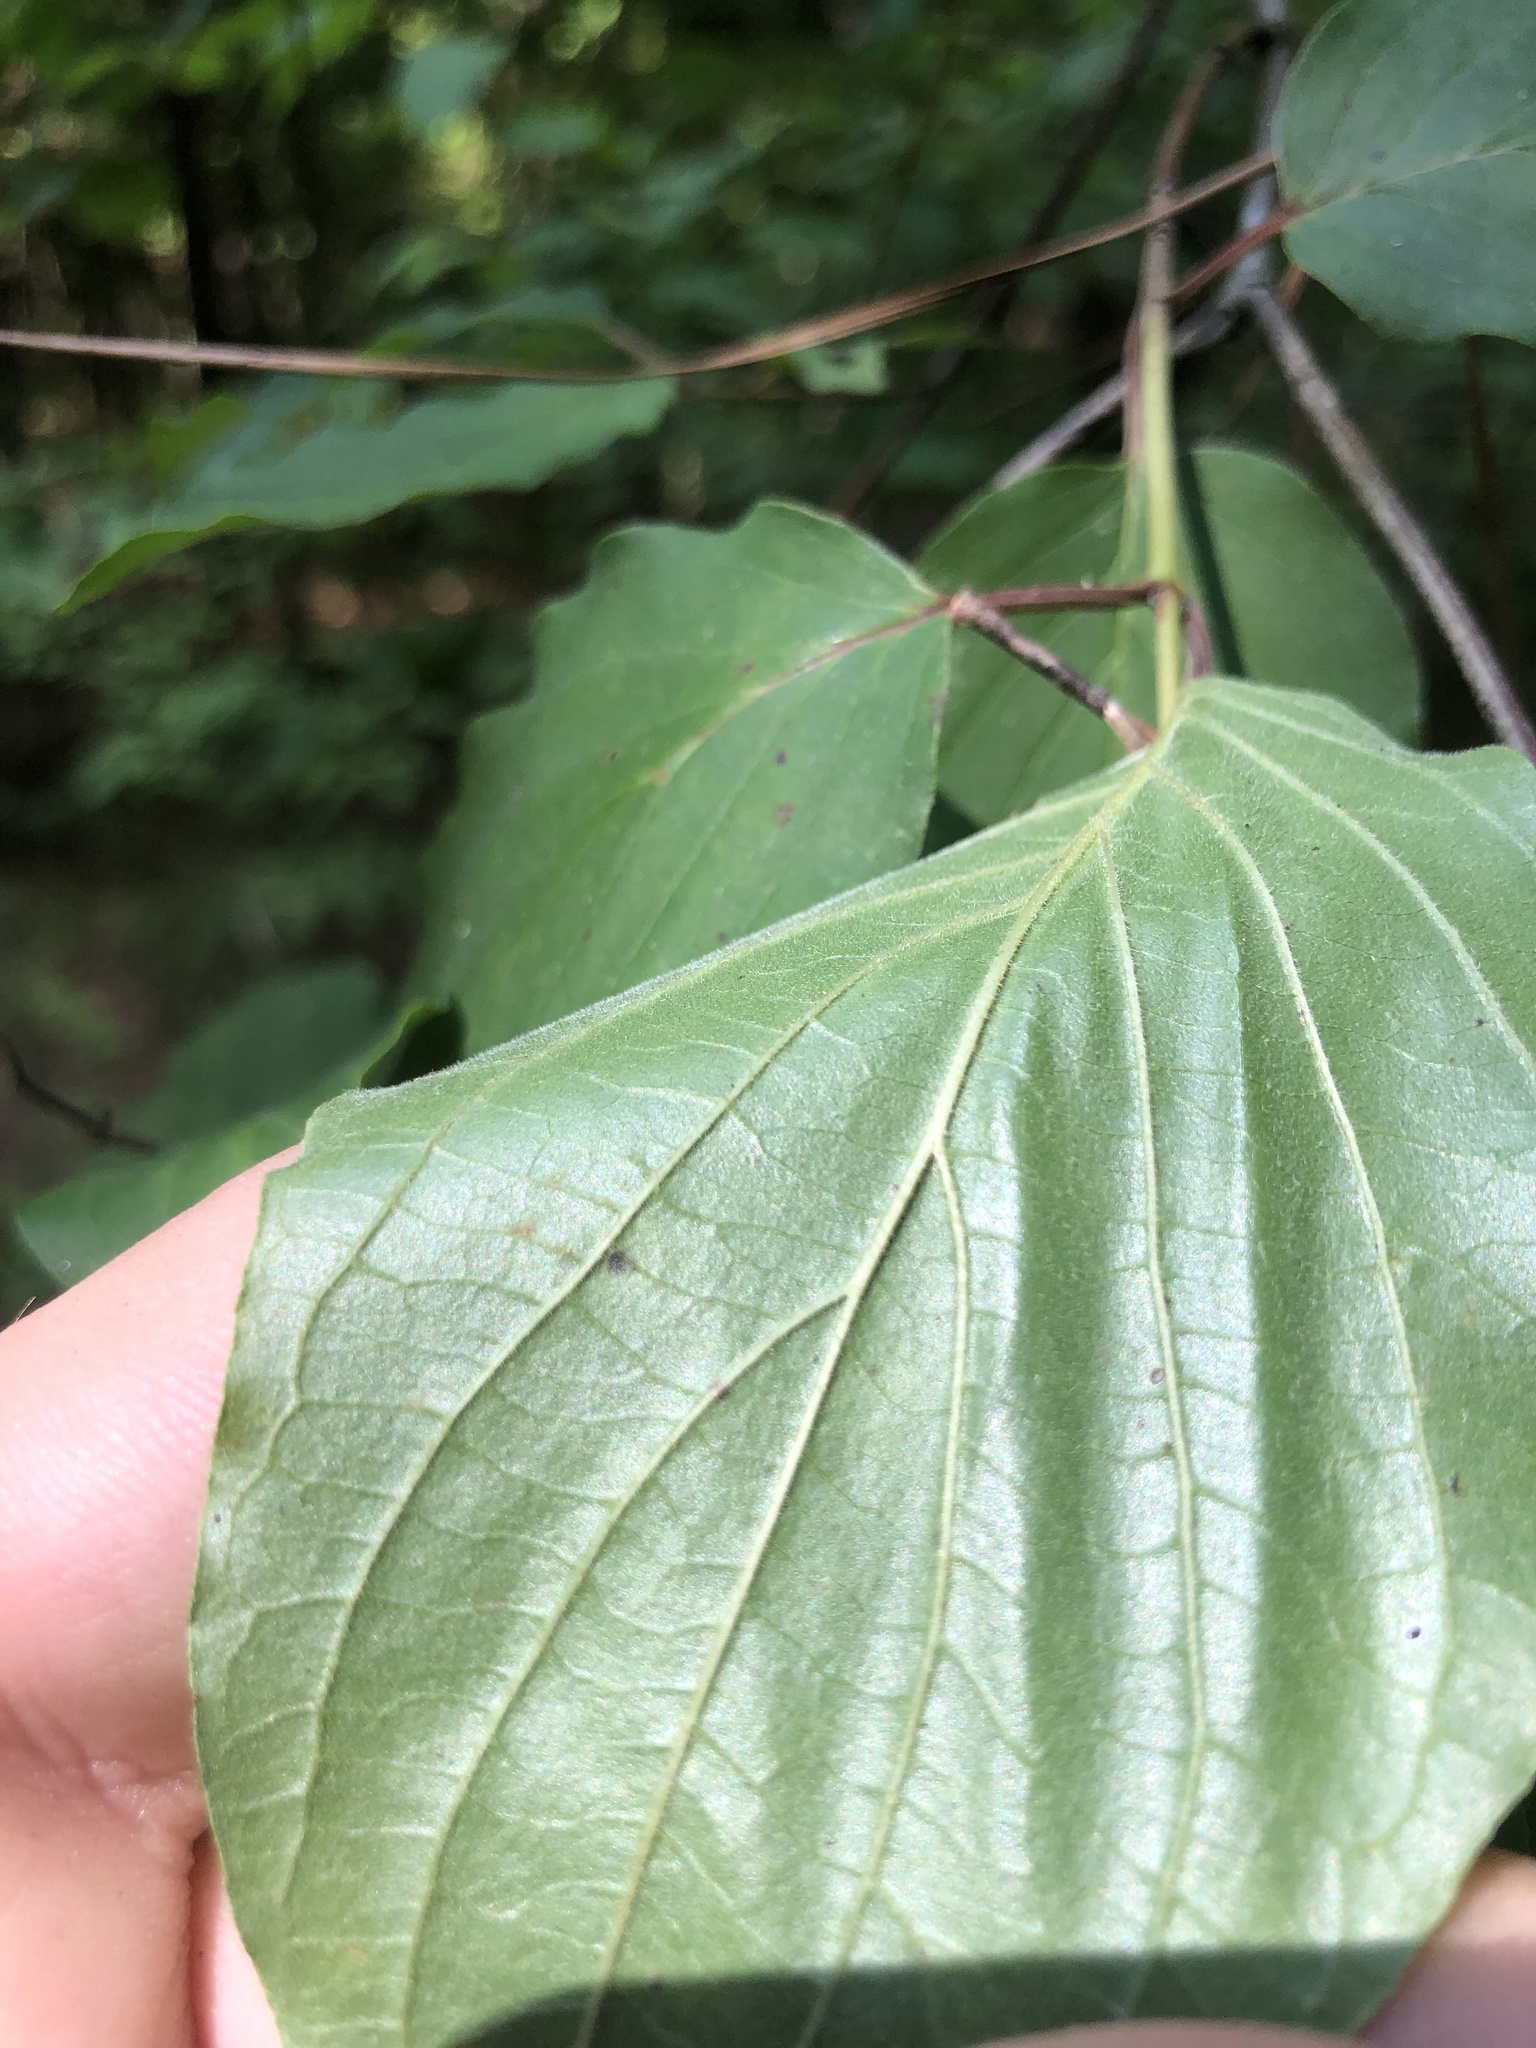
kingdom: Plantae
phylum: Tracheophyta
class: Magnoliopsida
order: Cornales
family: Cornaceae
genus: Cornus
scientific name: Cornus drummondii
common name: Rough-leaf dogwood
